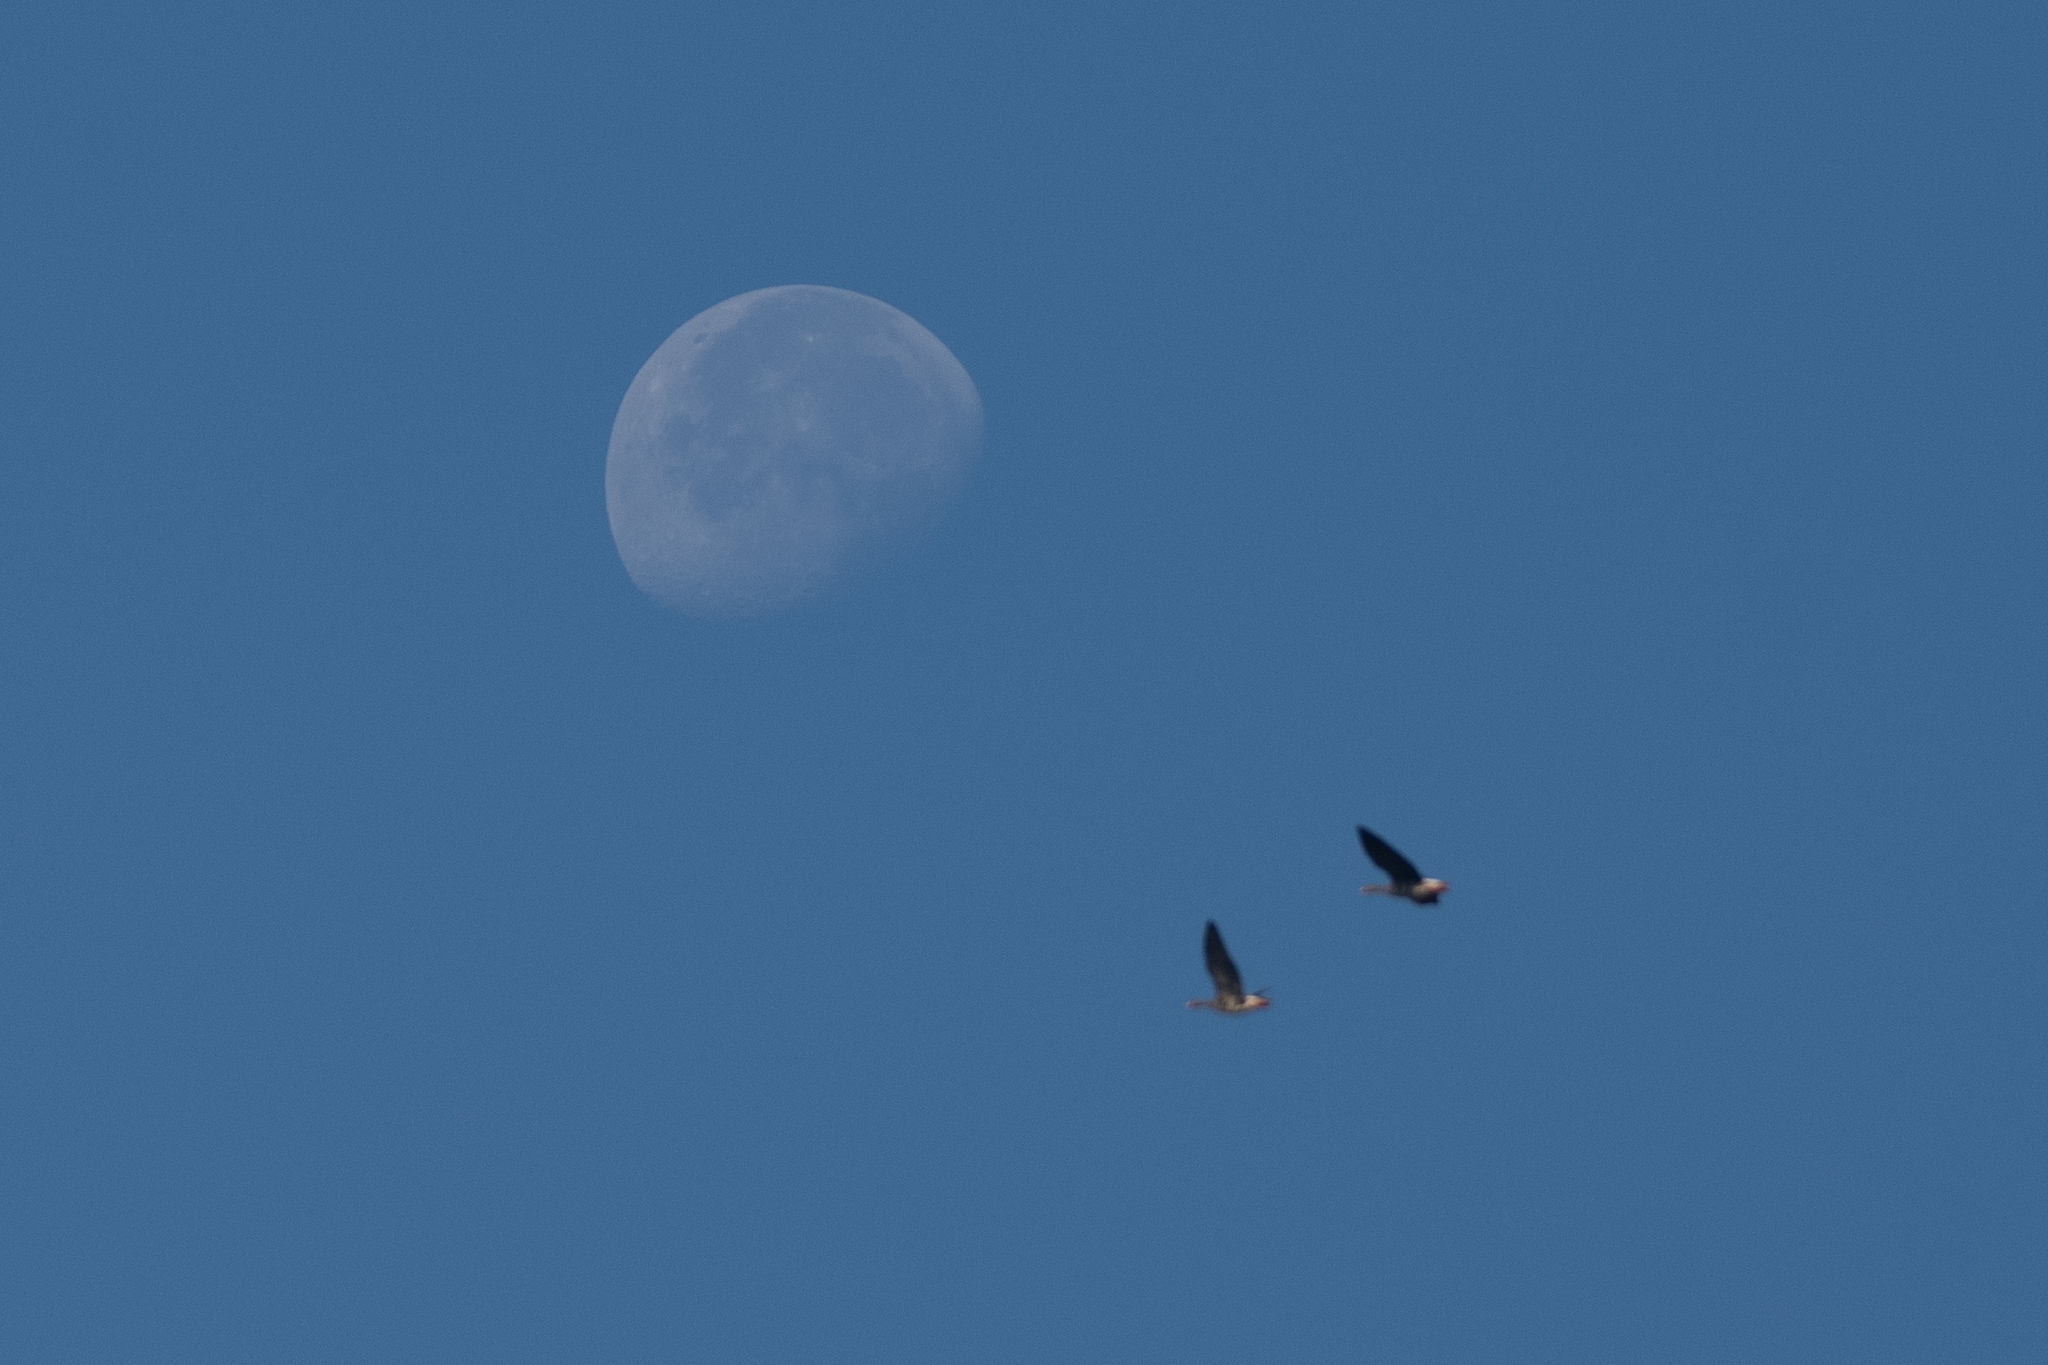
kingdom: Animalia
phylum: Chordata
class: Aves
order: Anseriformes
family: Anatidae
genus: Anser
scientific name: Anser albifrons
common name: Greater white-fronted goose
